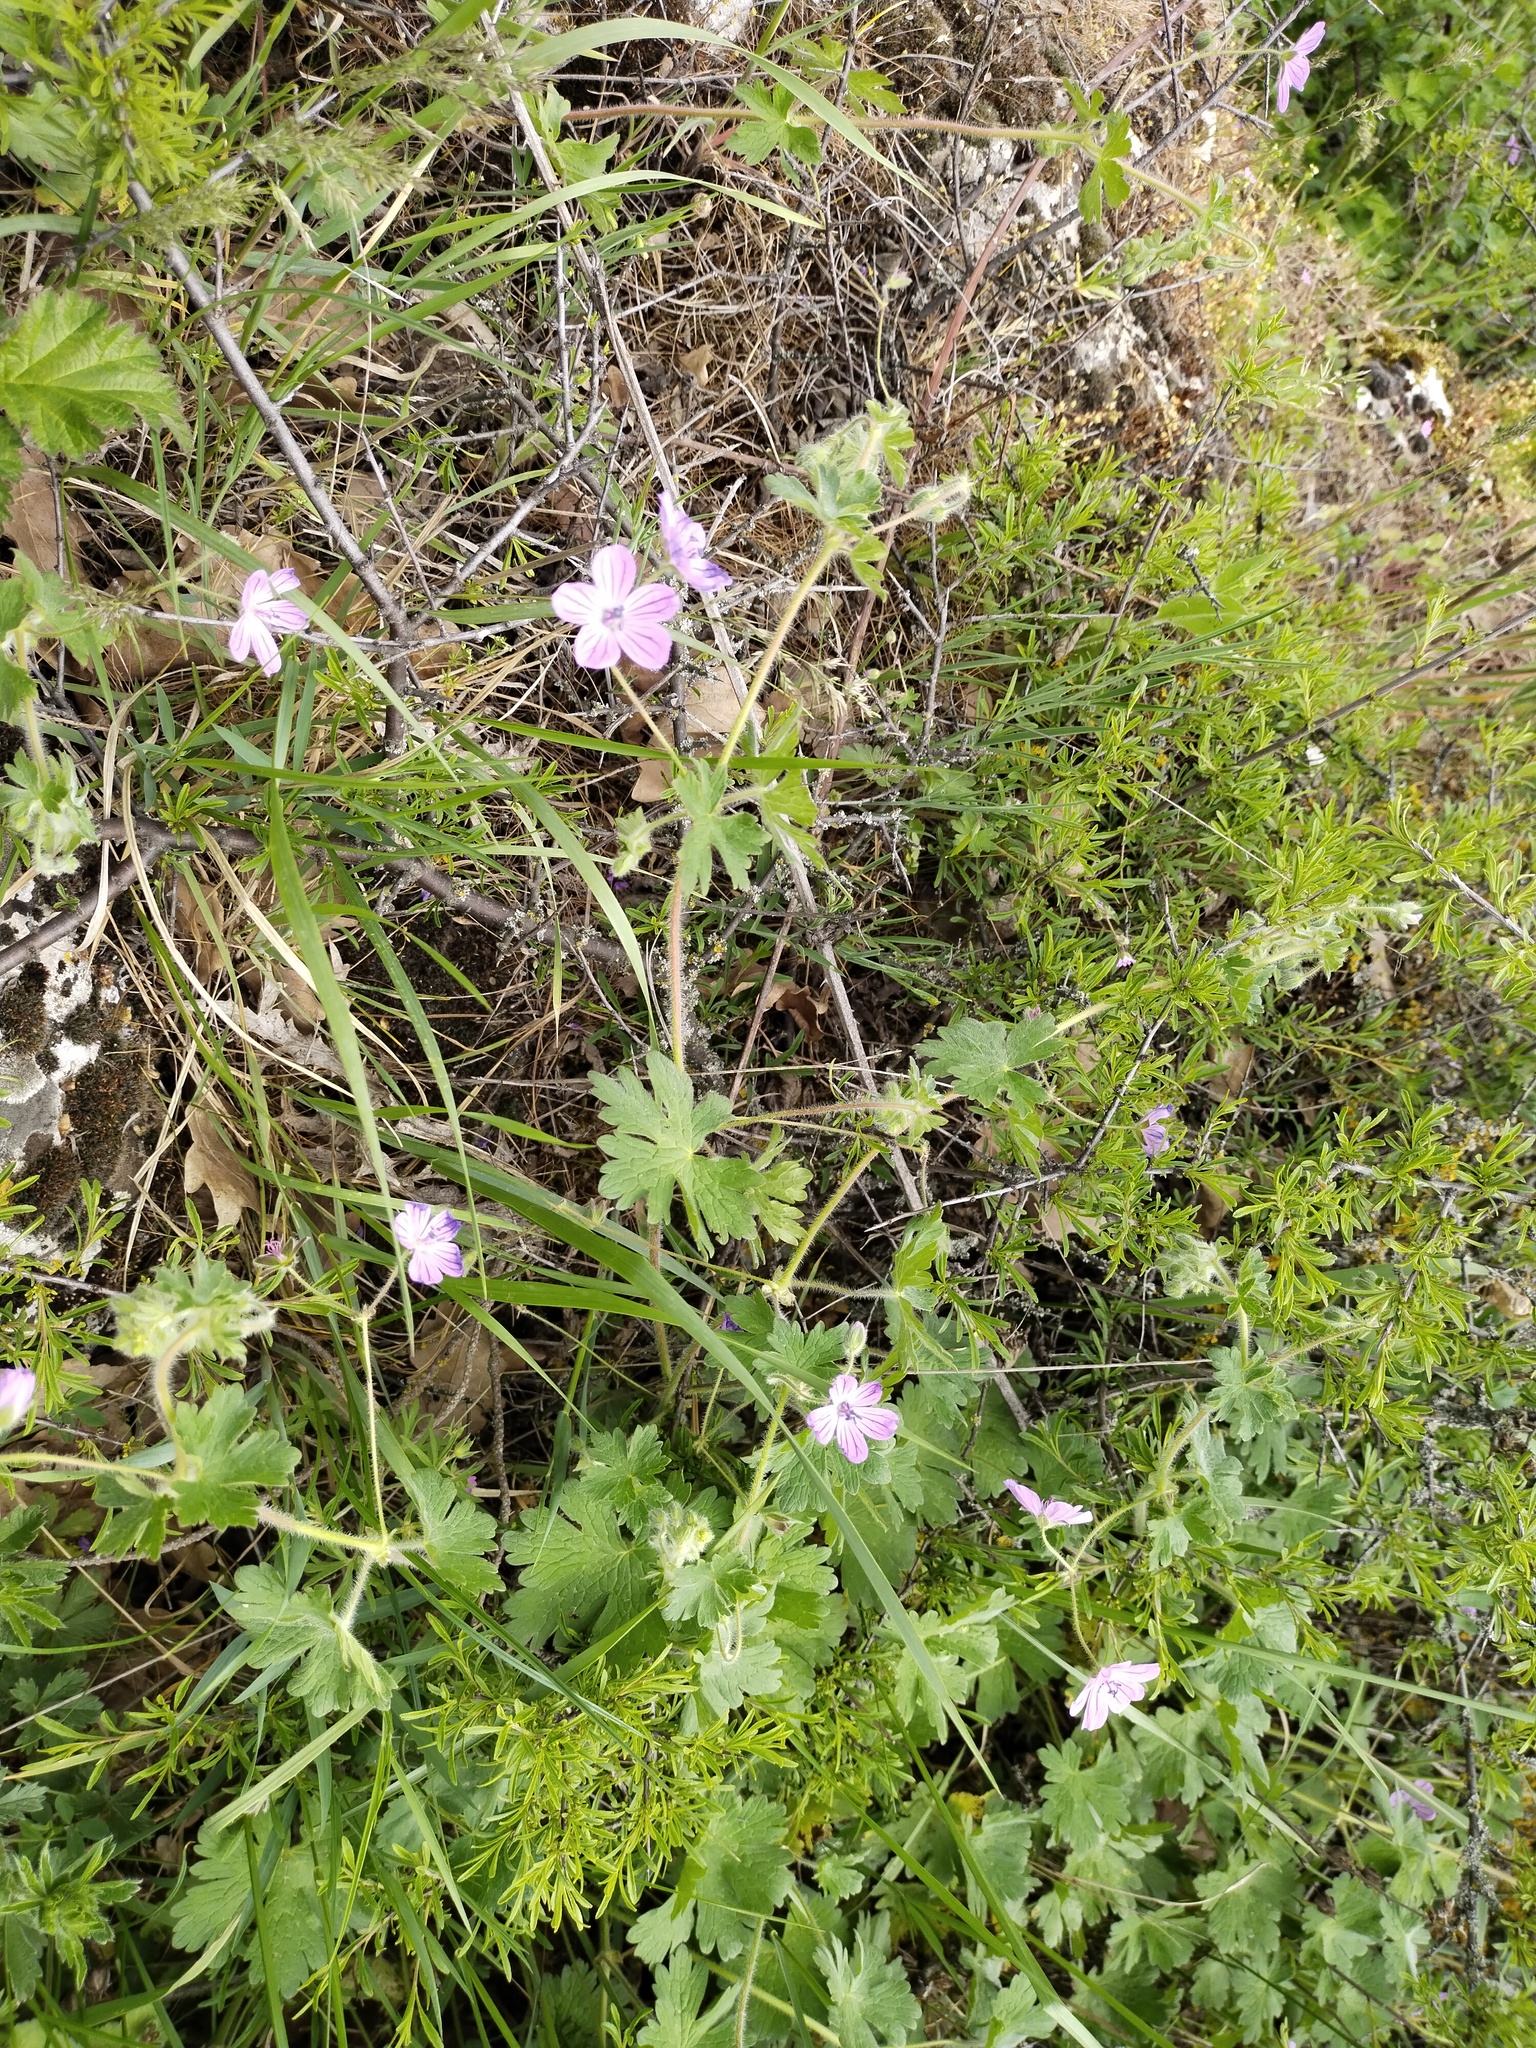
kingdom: Plantae
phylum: Tracheophyta
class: Magnoliopsida
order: Geraniales
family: Geraniaceae
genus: Geranium
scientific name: Geranium albanum
